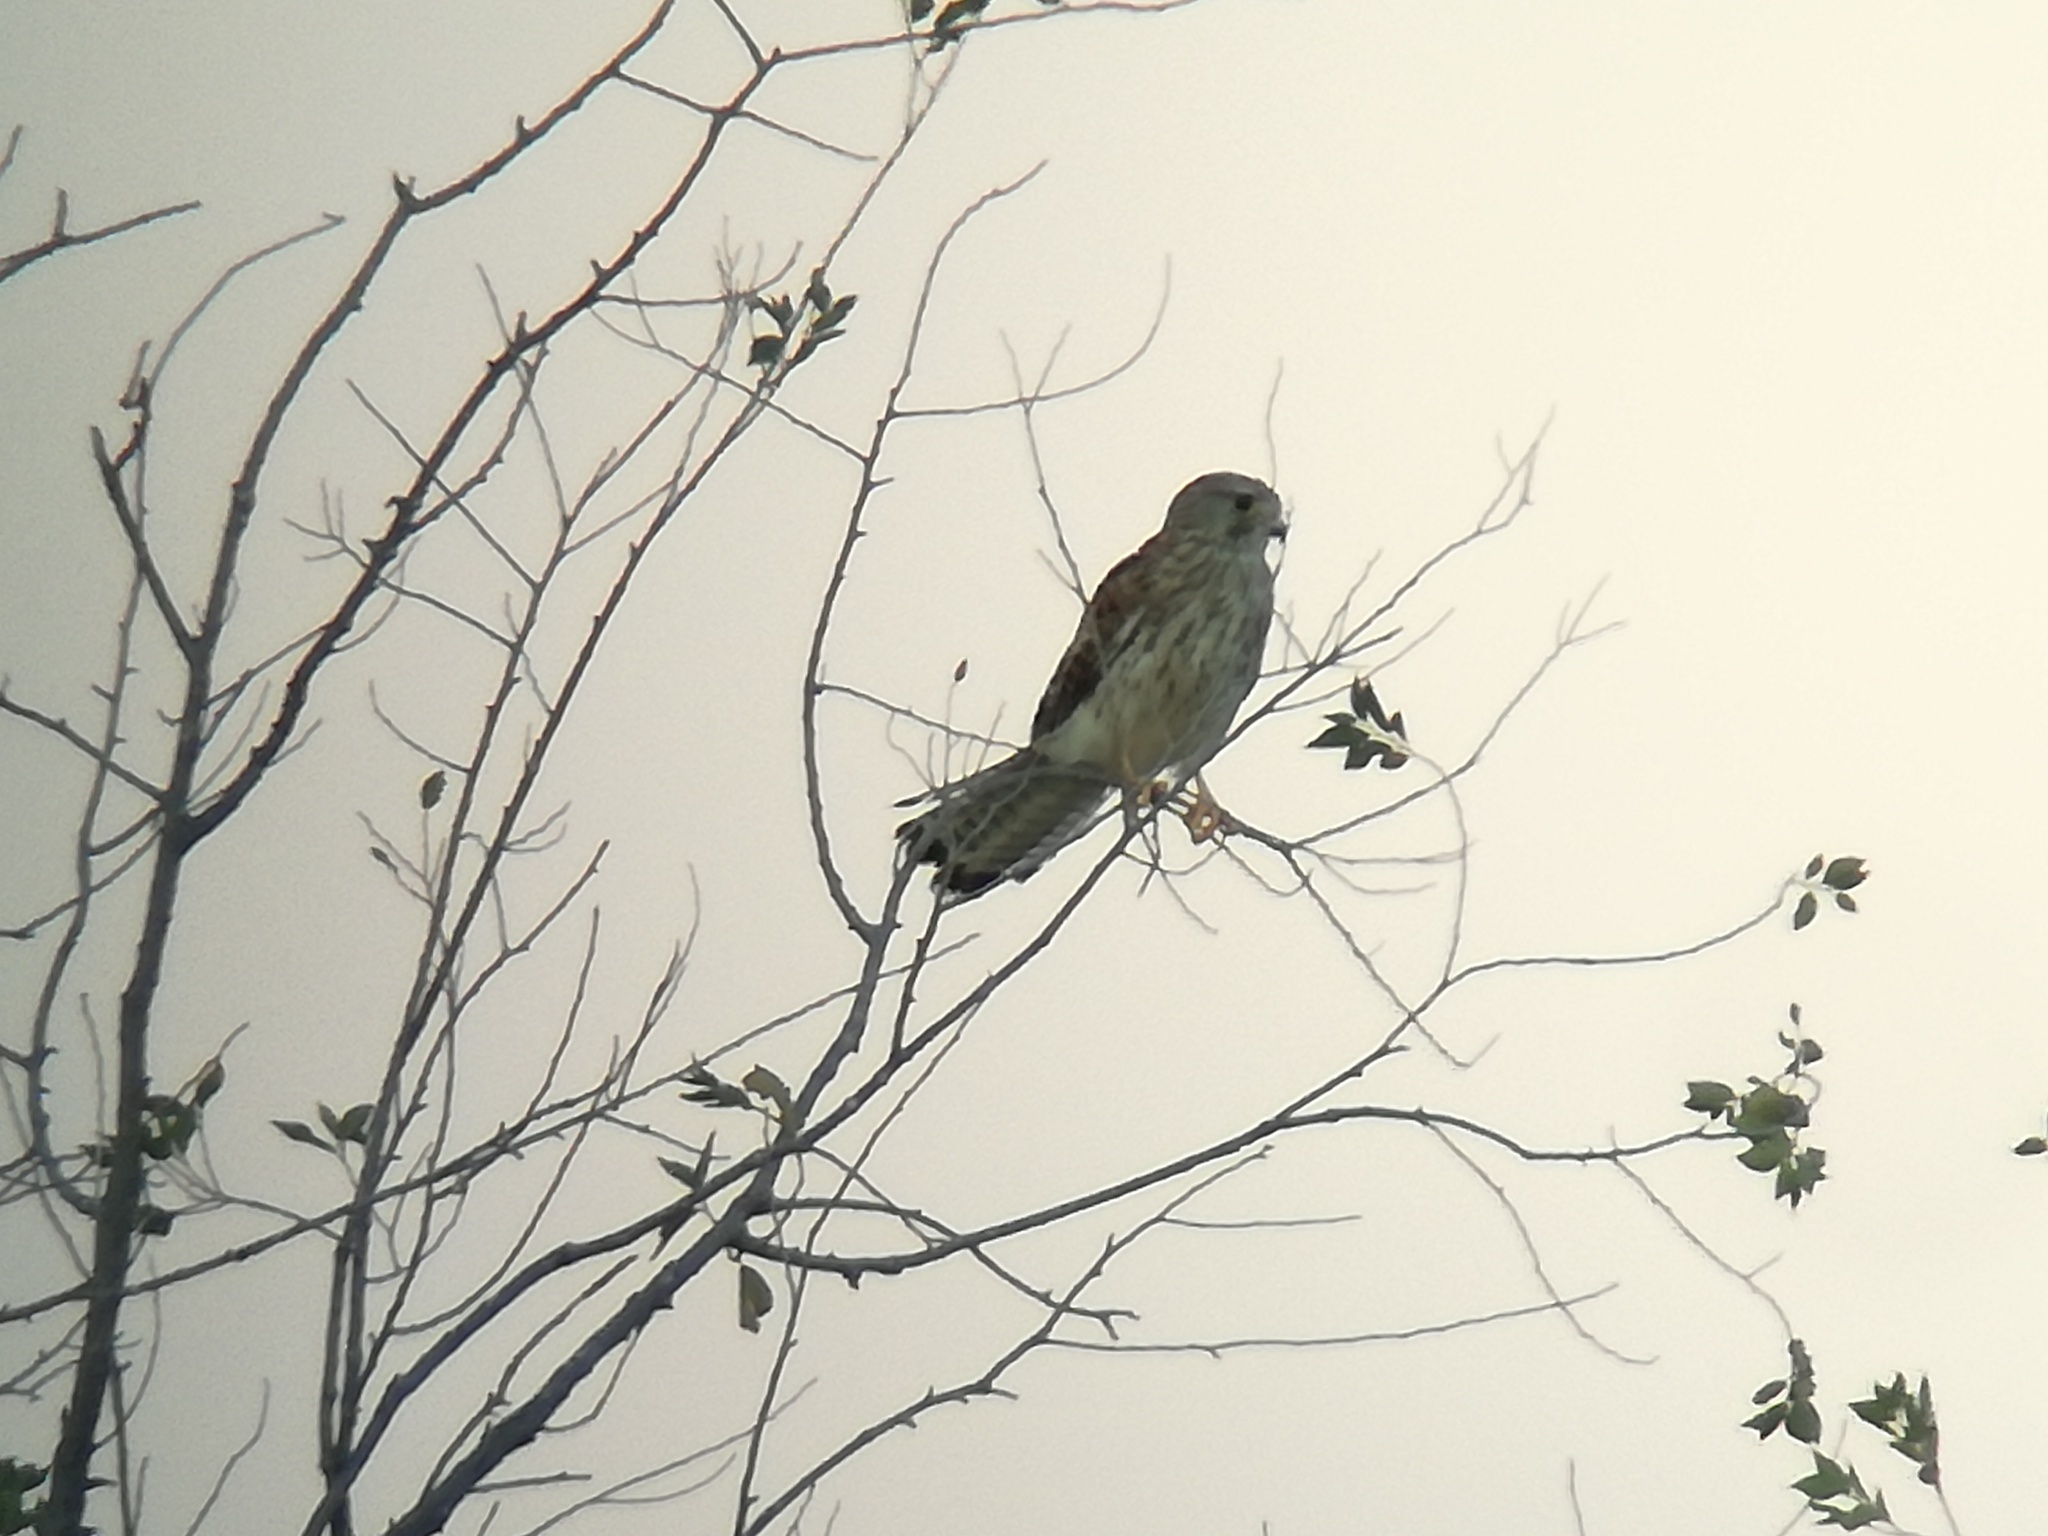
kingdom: Animalia
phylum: Chordata
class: Aves
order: Falconiformes
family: Falconidae
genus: Falco
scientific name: Falco tinnunculus
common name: Common kestrel
